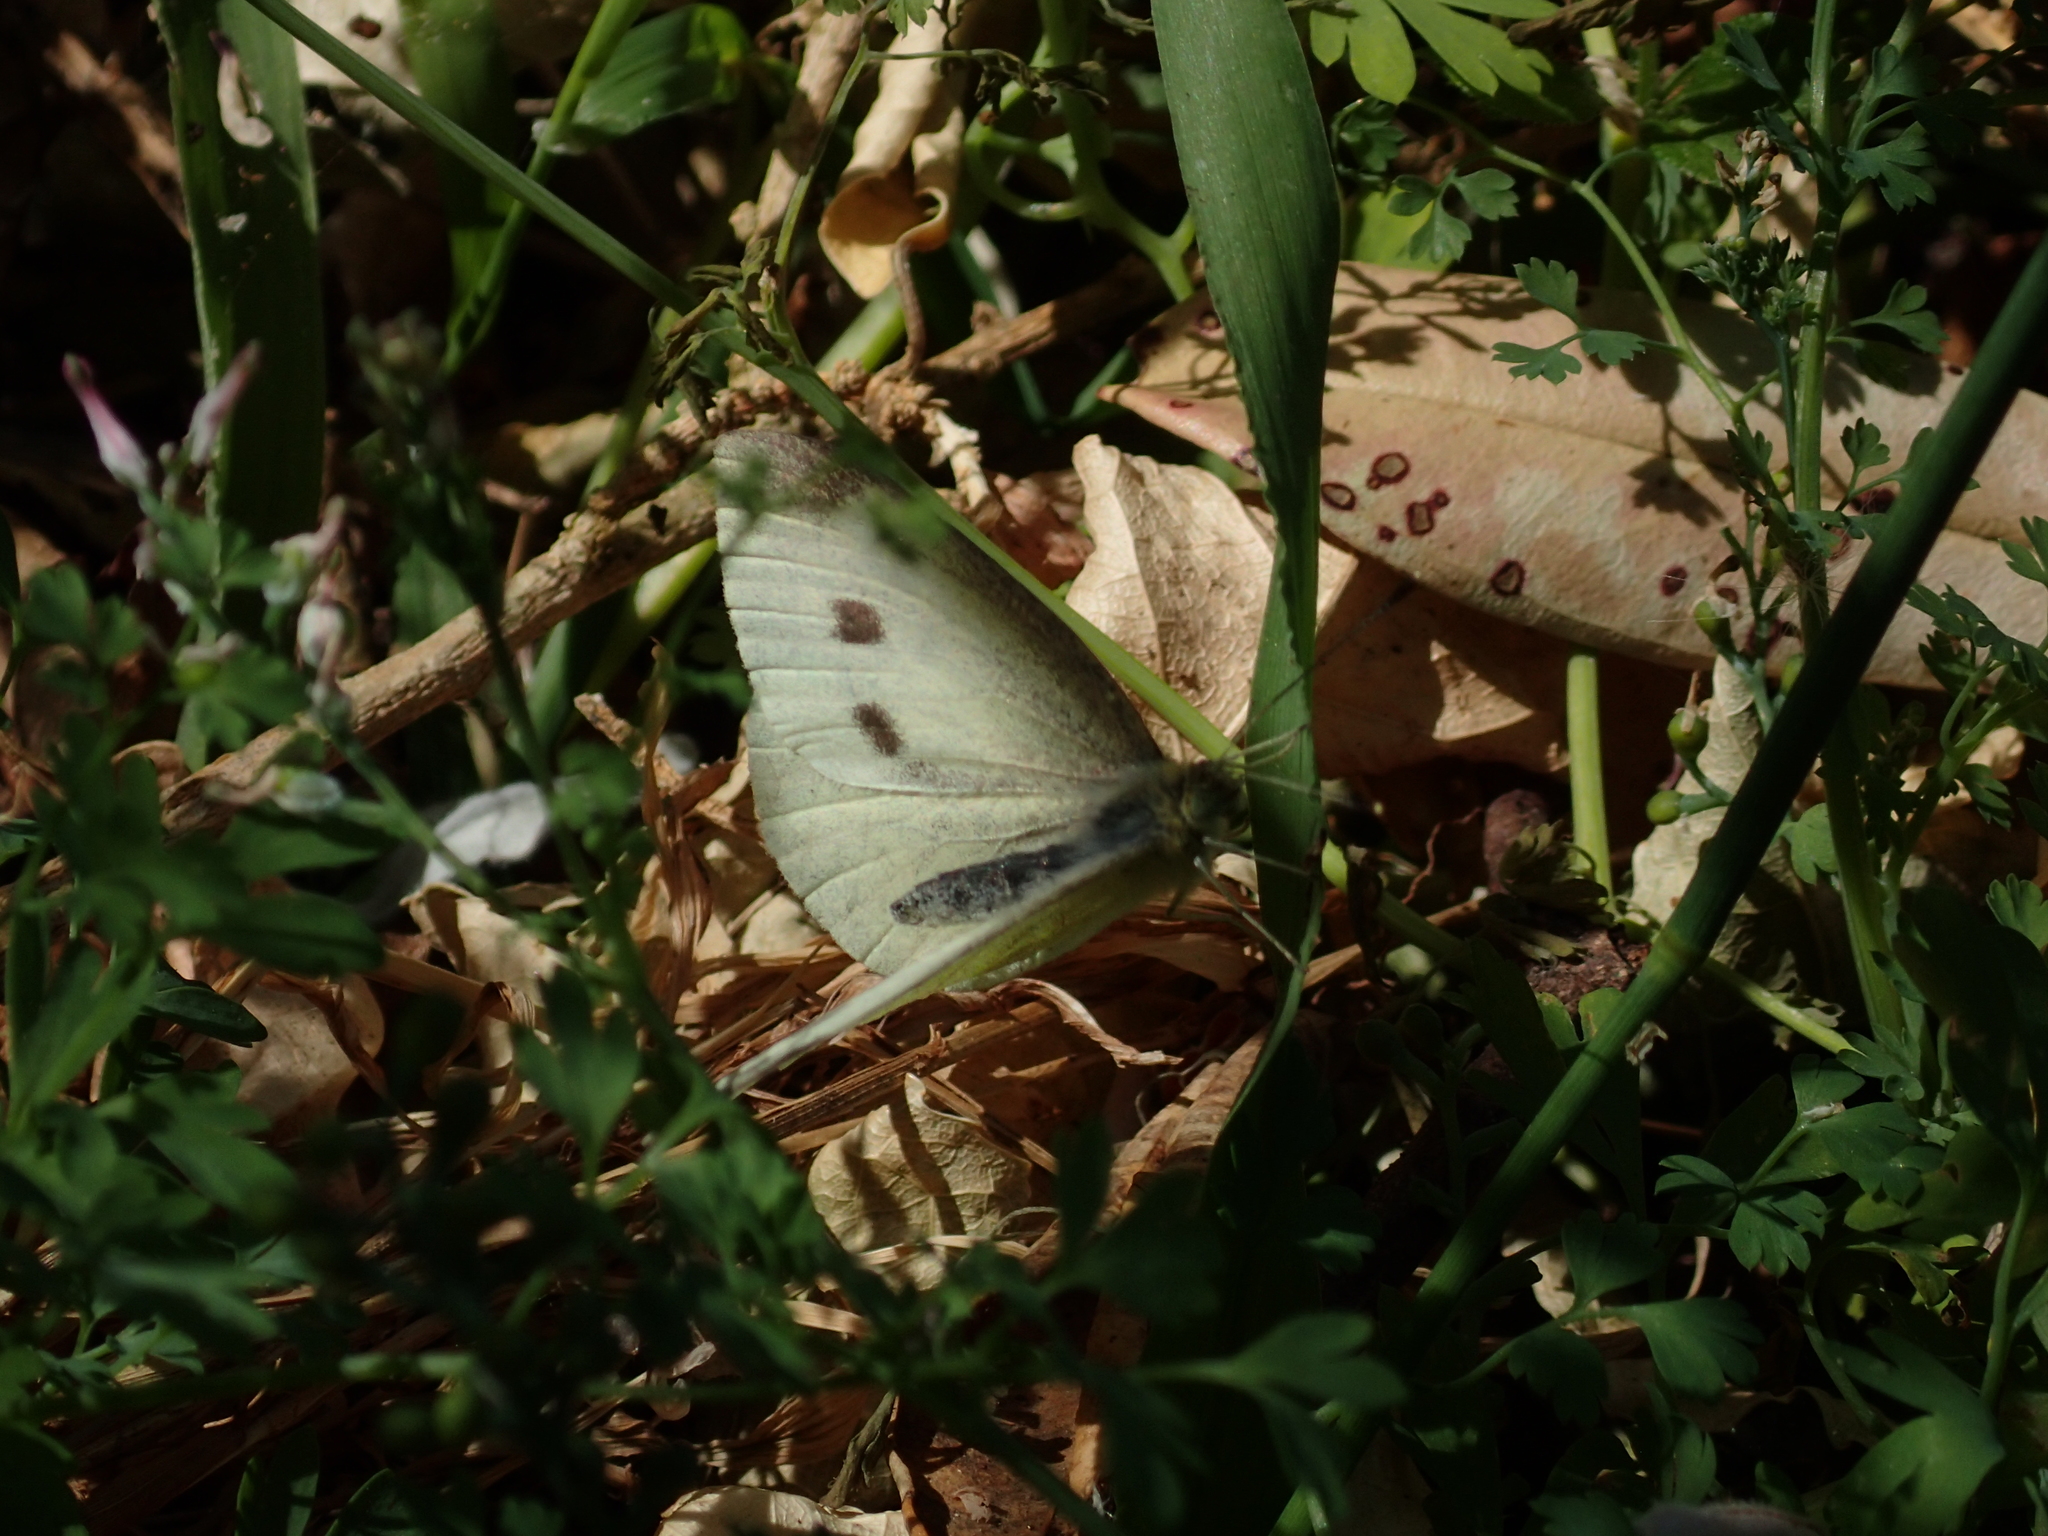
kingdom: Animalia
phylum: Arthropoda
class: Insecta
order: Lepidoptera
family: Pieridae
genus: Pieris
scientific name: Pieris rapae
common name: Small white
